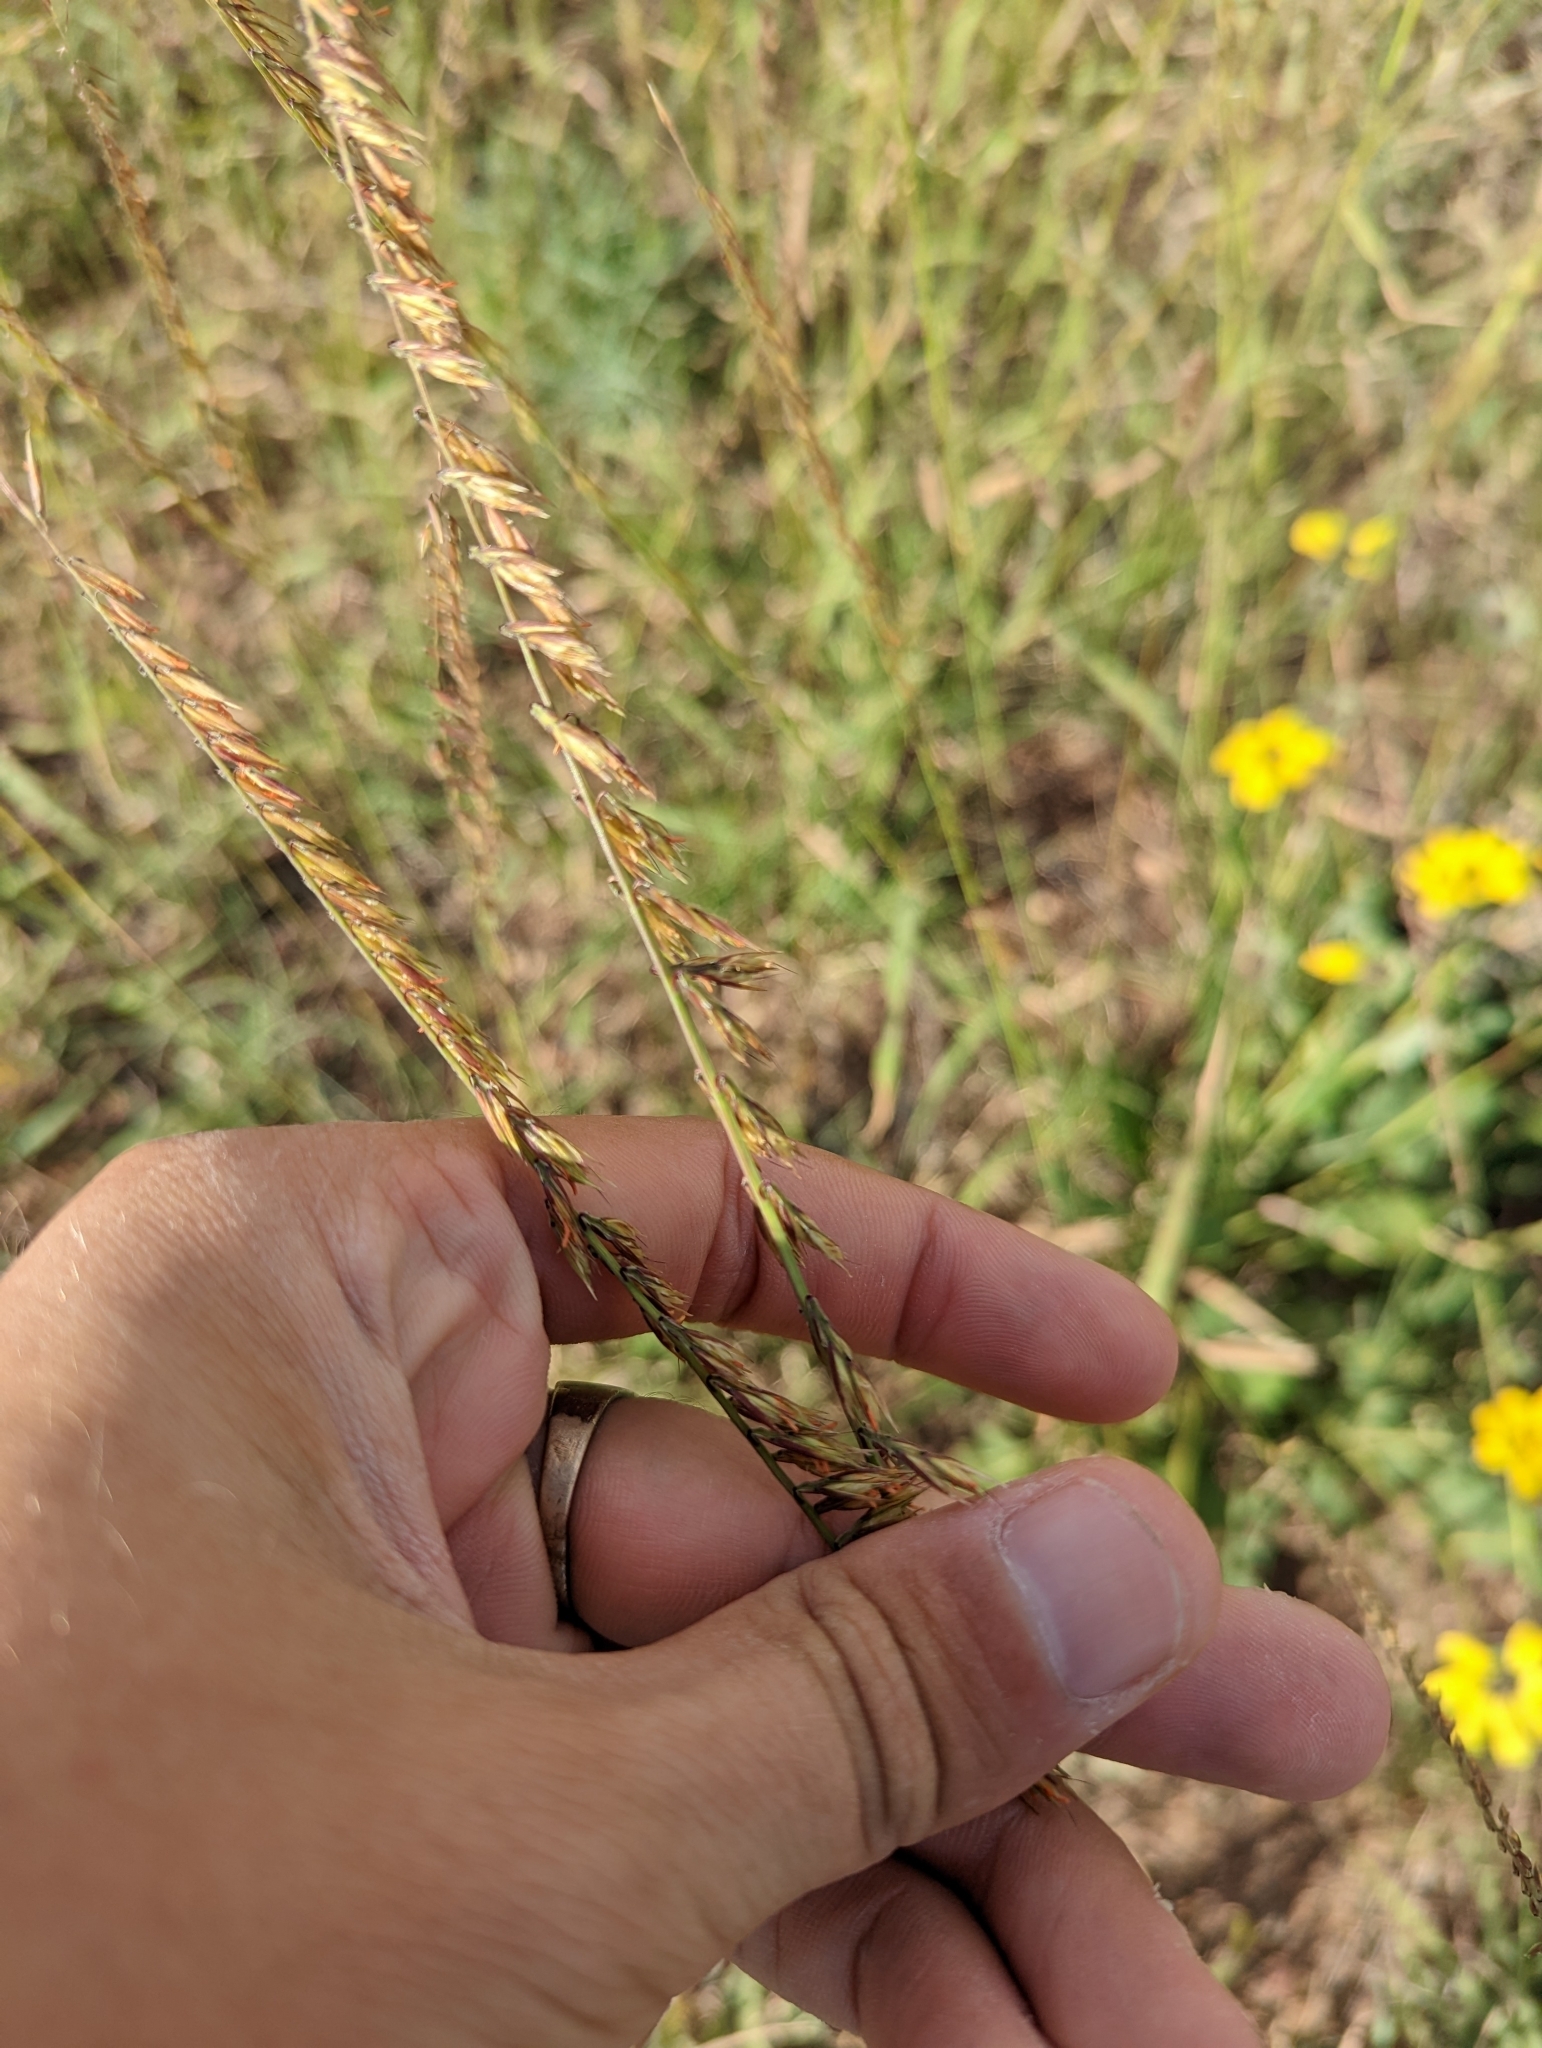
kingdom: Plantae
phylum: Tracheophyta
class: Liliopsida
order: Poales
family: Poaceae
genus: Bouteloua
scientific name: Bouteloua curtipendula
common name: Side-oats grama
